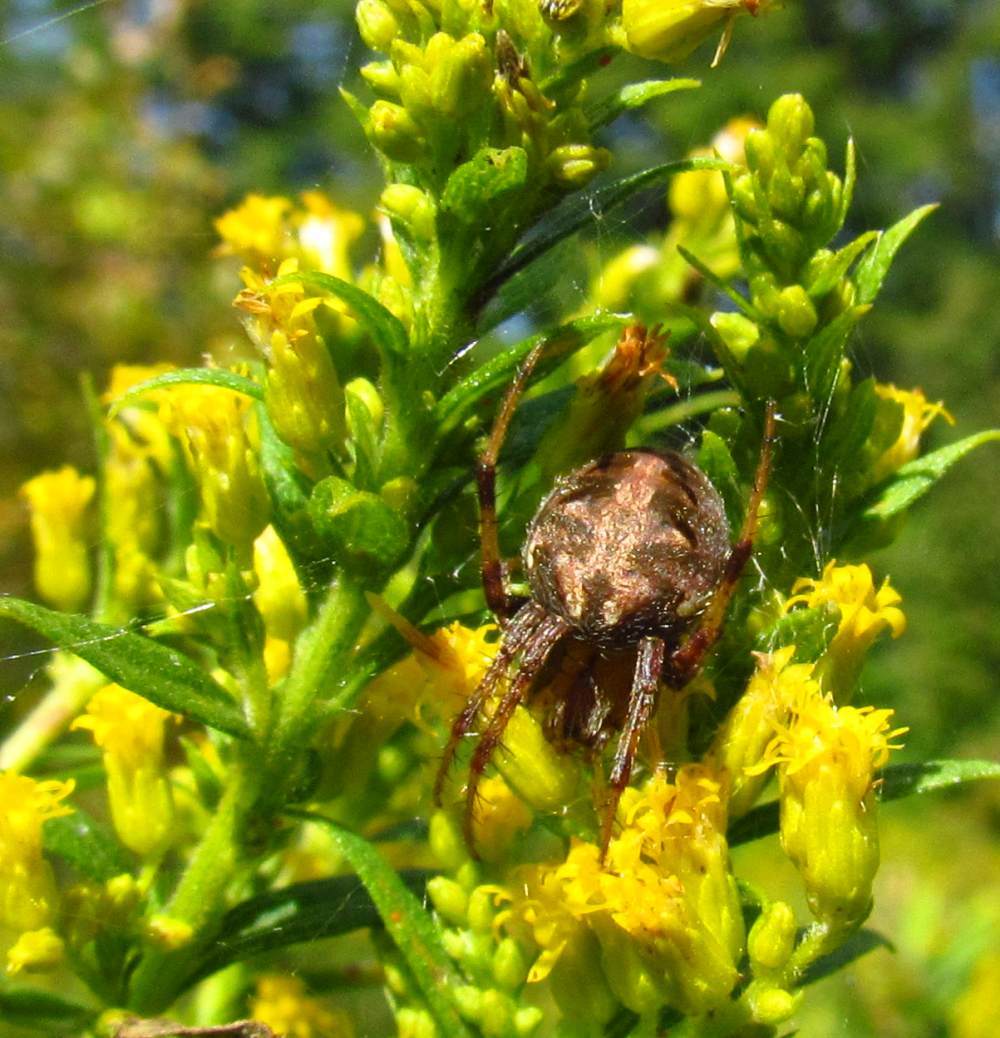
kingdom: Animalia
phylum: Arthropoda
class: Arachnida
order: Araneae
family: Araneidae
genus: Neoscona
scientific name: Neoscona arabesca
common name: Orb weavers
